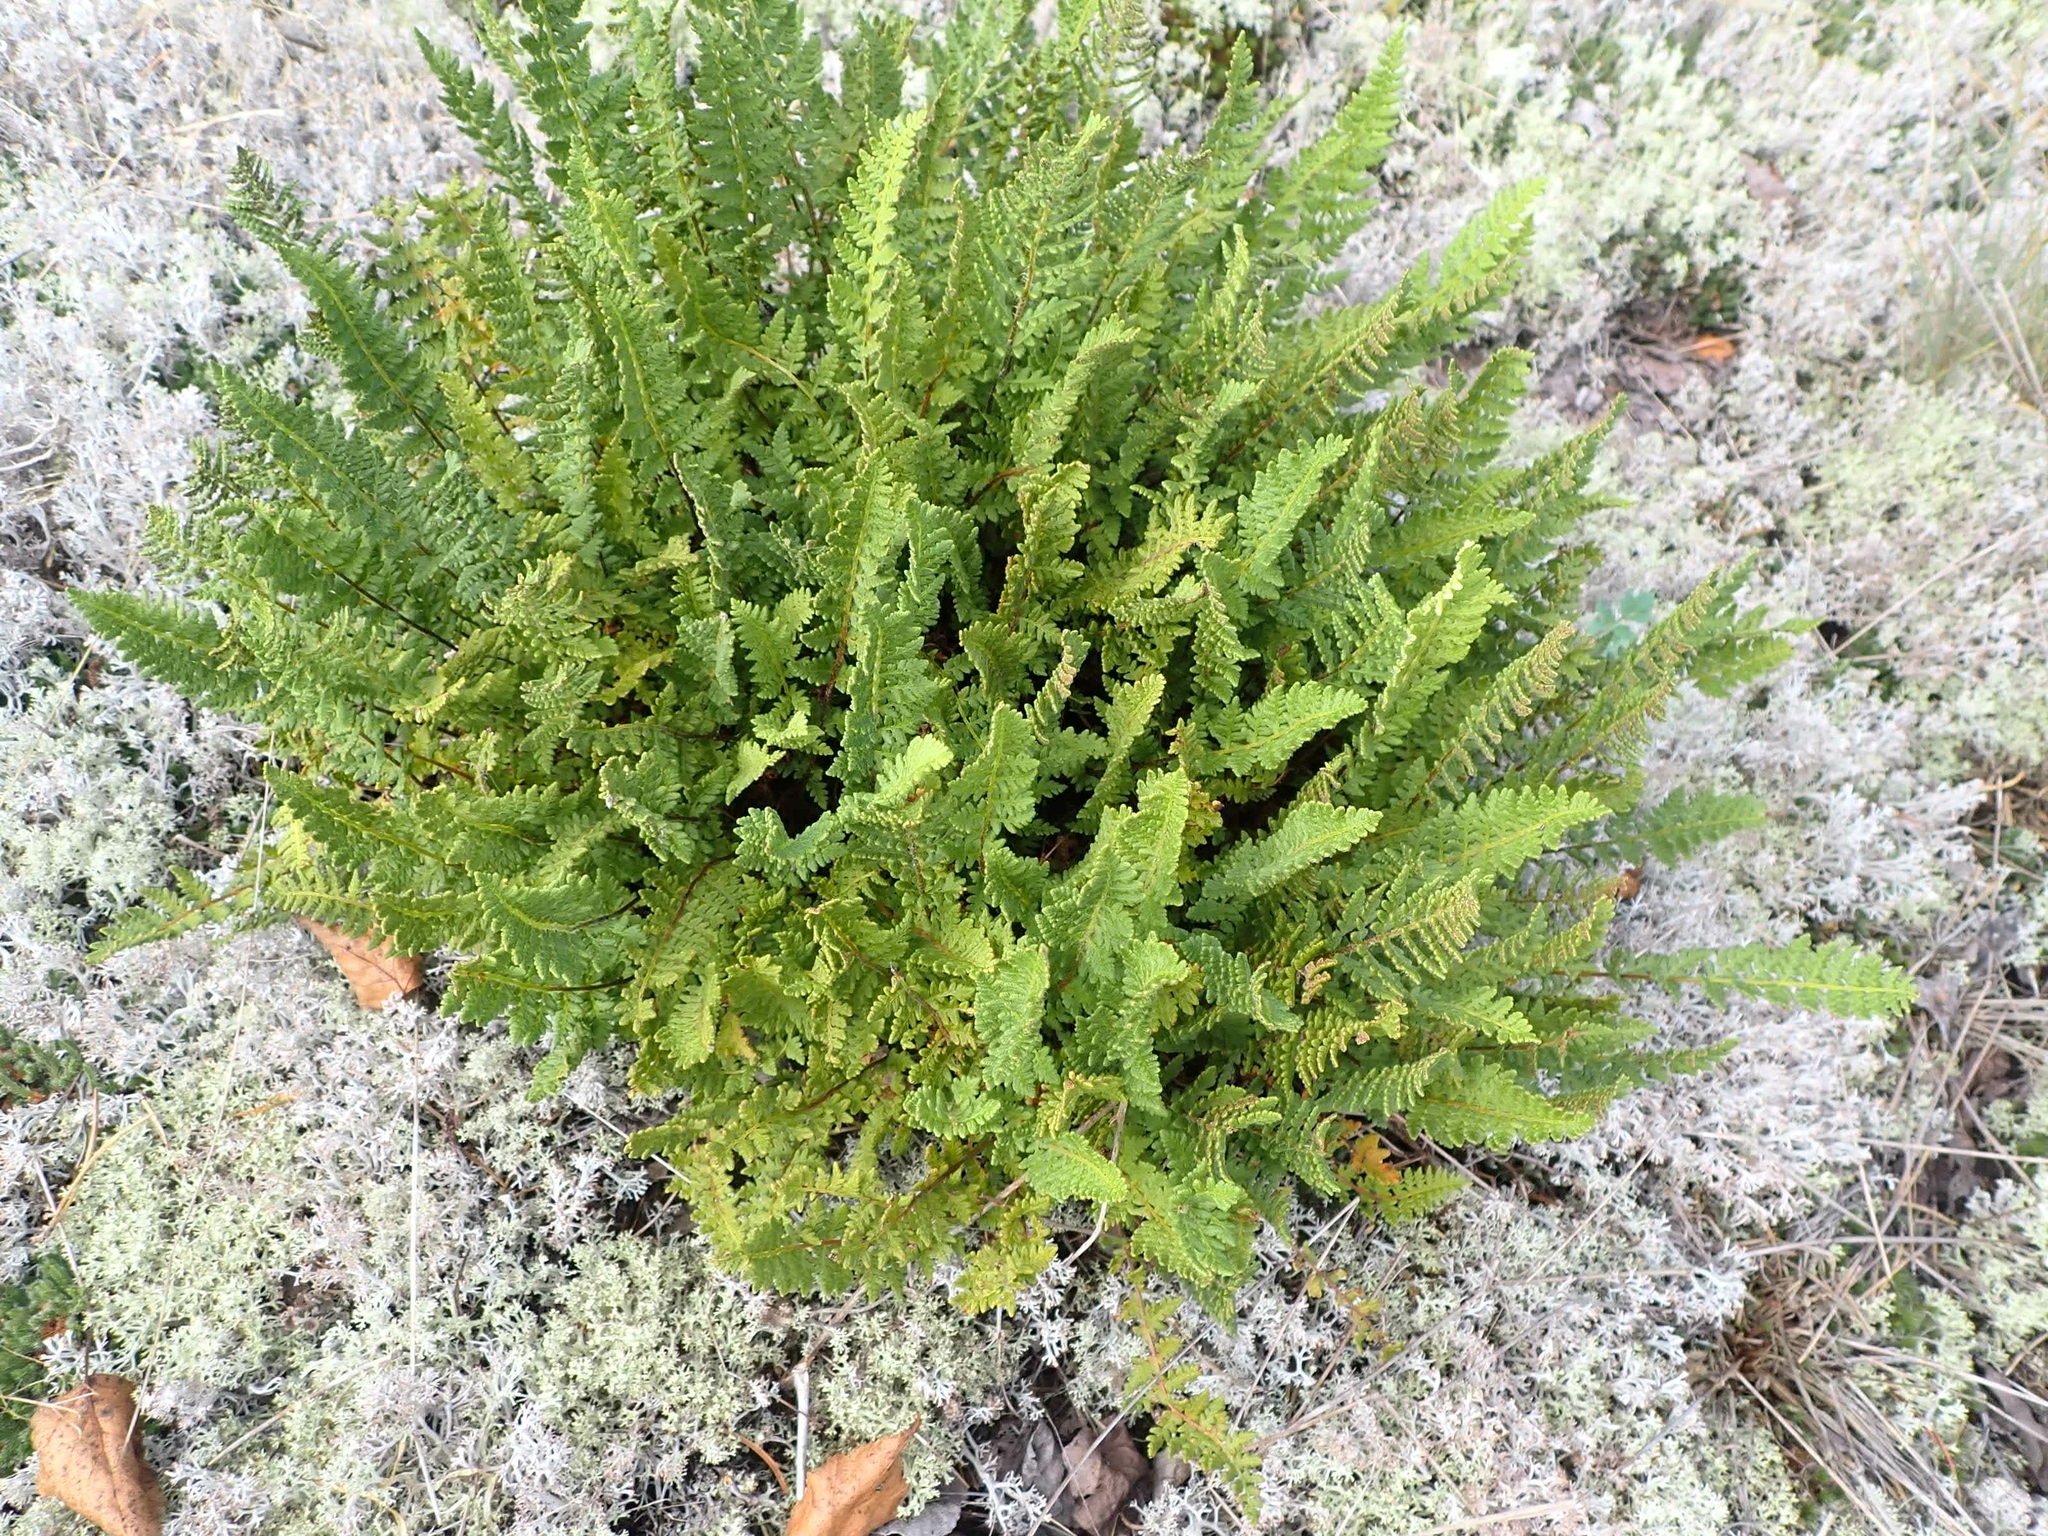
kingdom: Plantae
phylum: Tracheophyta
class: Polypodiopsida
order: Polypodiales
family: Woodsiaceae
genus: Woodsia
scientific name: Woodsia ilvensis
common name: Fragrant woodsia
